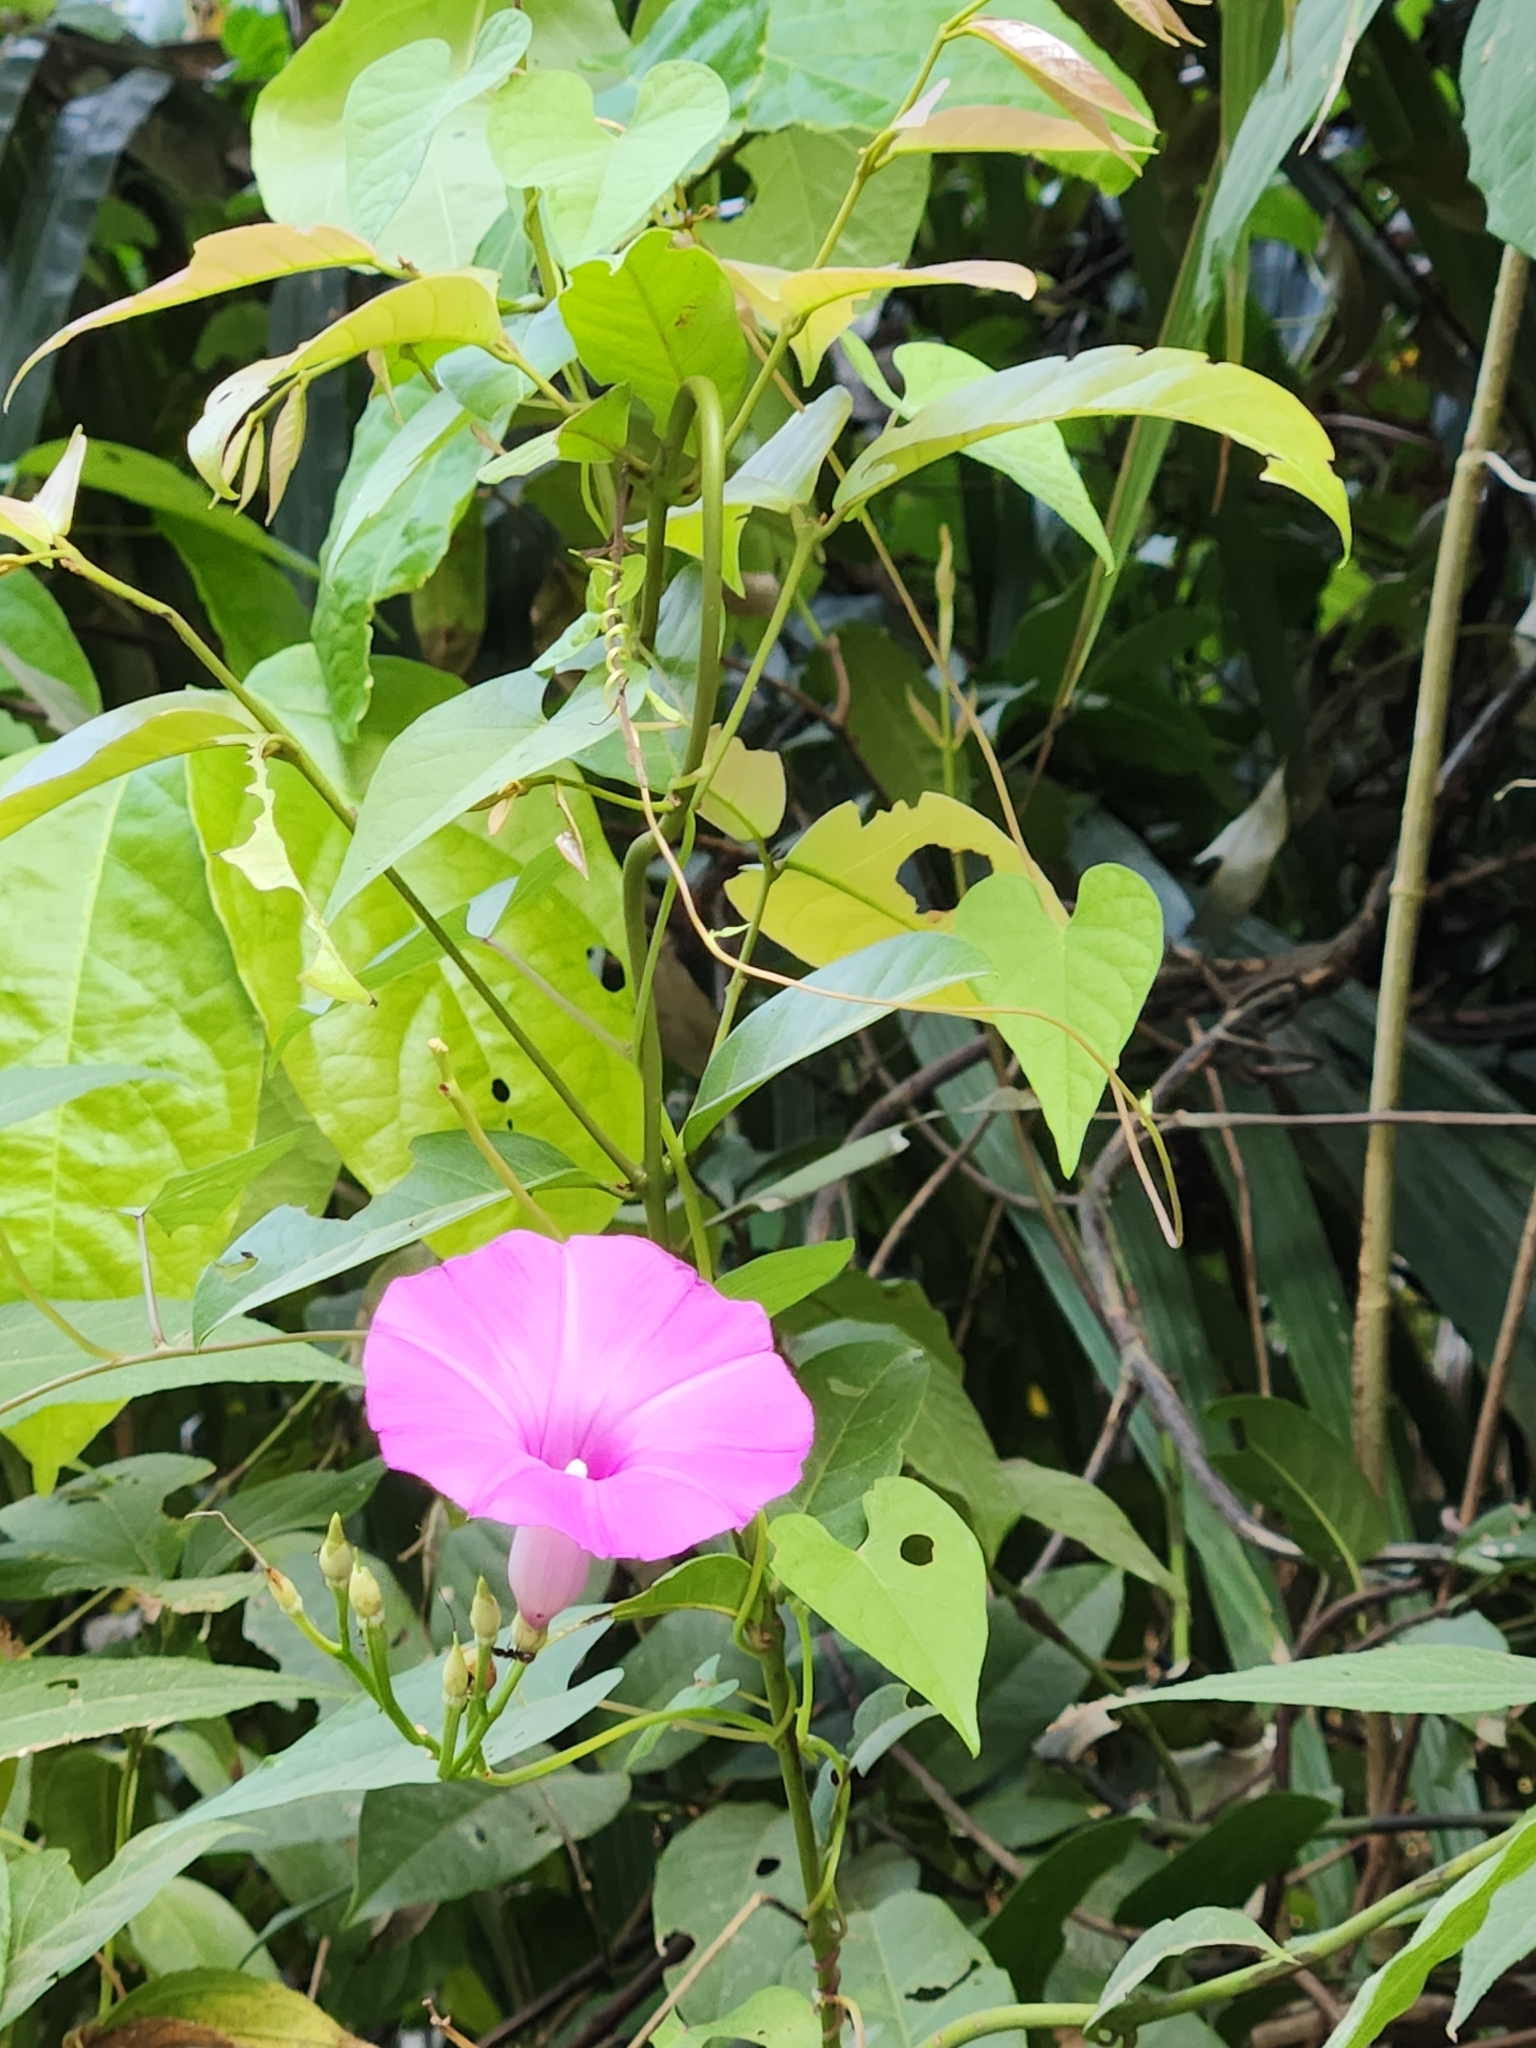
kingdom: Plantae
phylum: Tracheophyta
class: Magnoliopsida
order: Solanales
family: Convolvulaceae
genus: Ipomoea
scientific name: Ipomoea splendor-sylvae
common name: Morning glory
